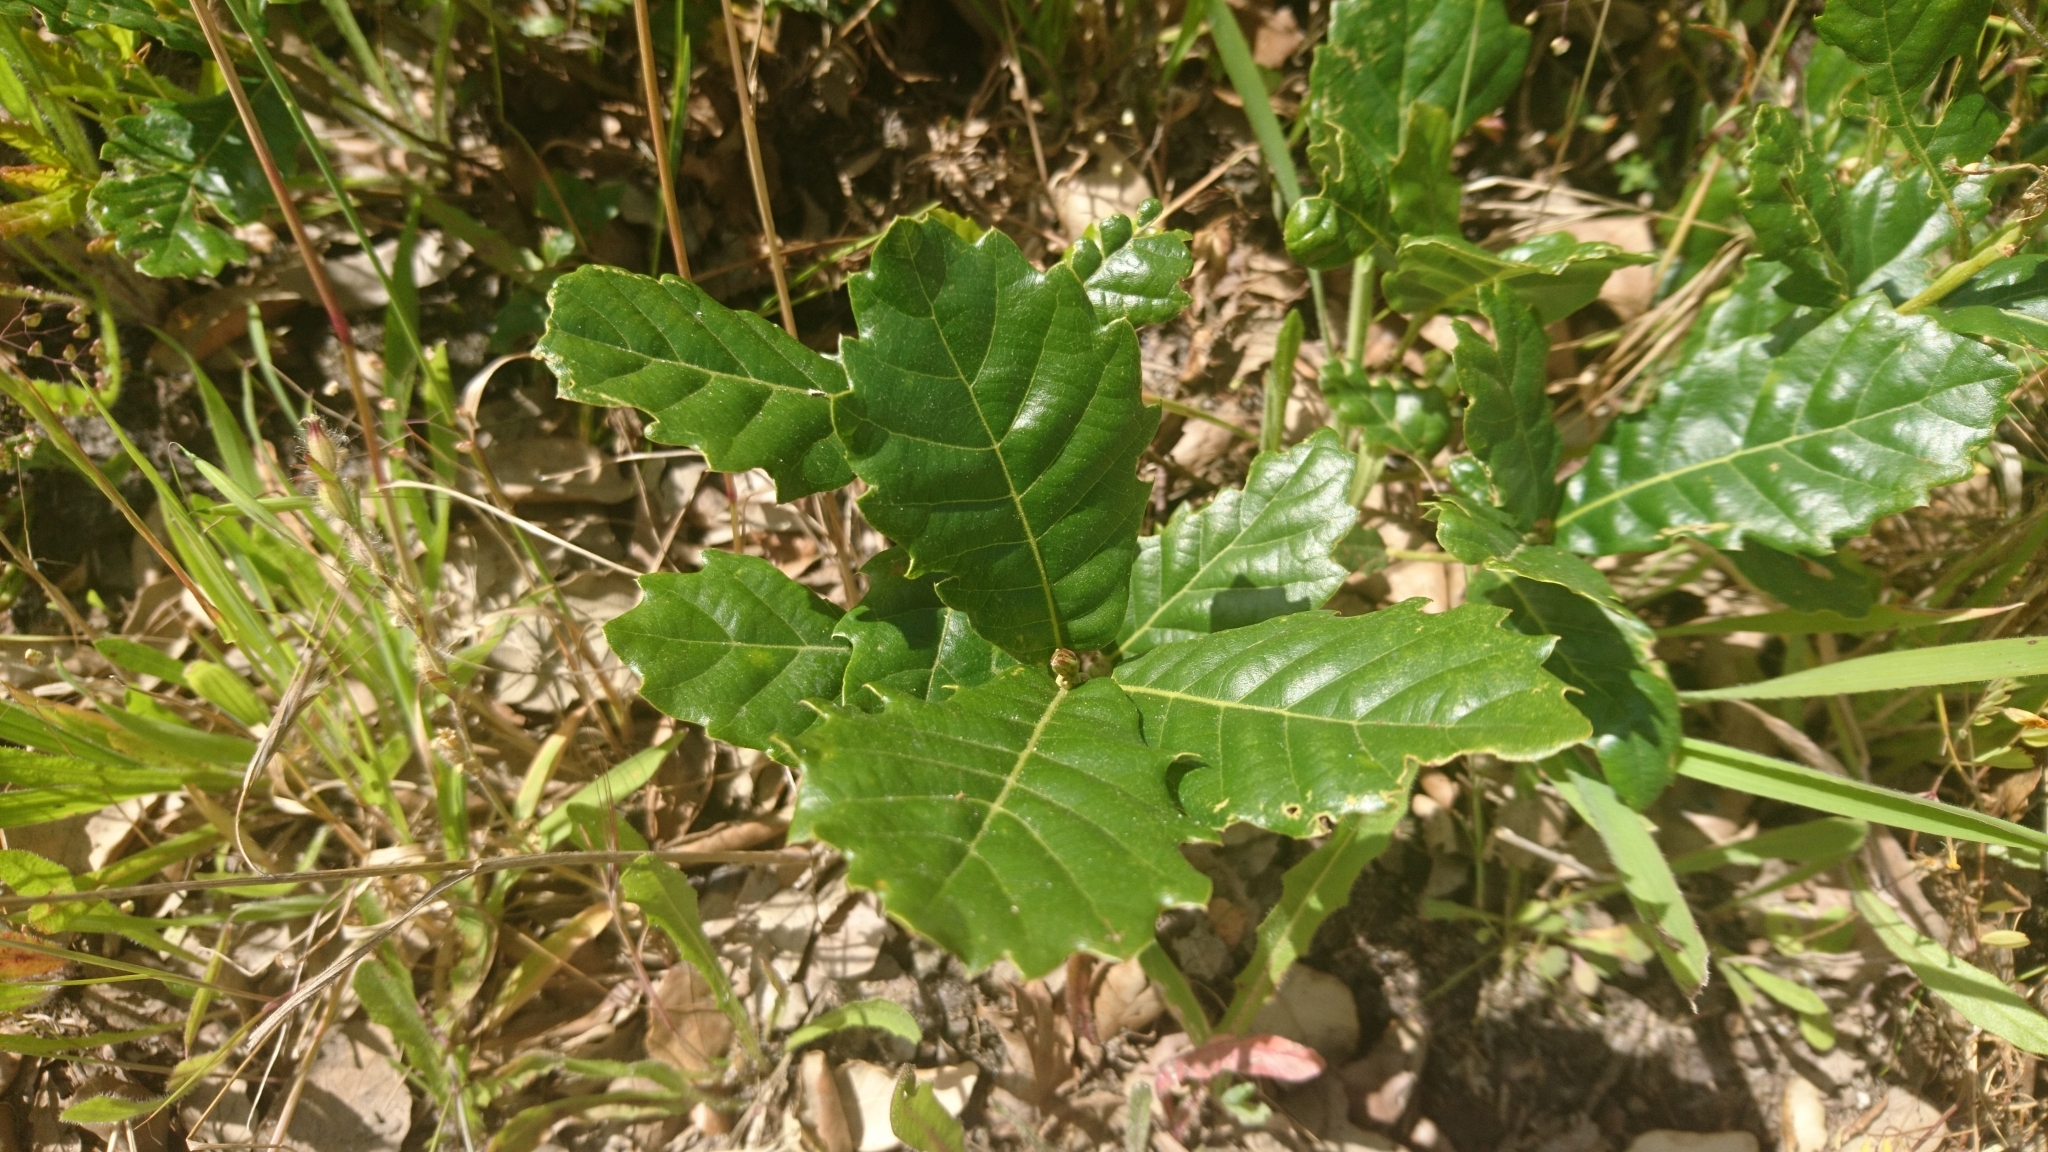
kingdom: Plantae
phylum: Tracheophyta
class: Magnoliopsida
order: Fagales
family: Fagaceae
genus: Quercus
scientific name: Quercus lusitanica
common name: Scrub gall oak
